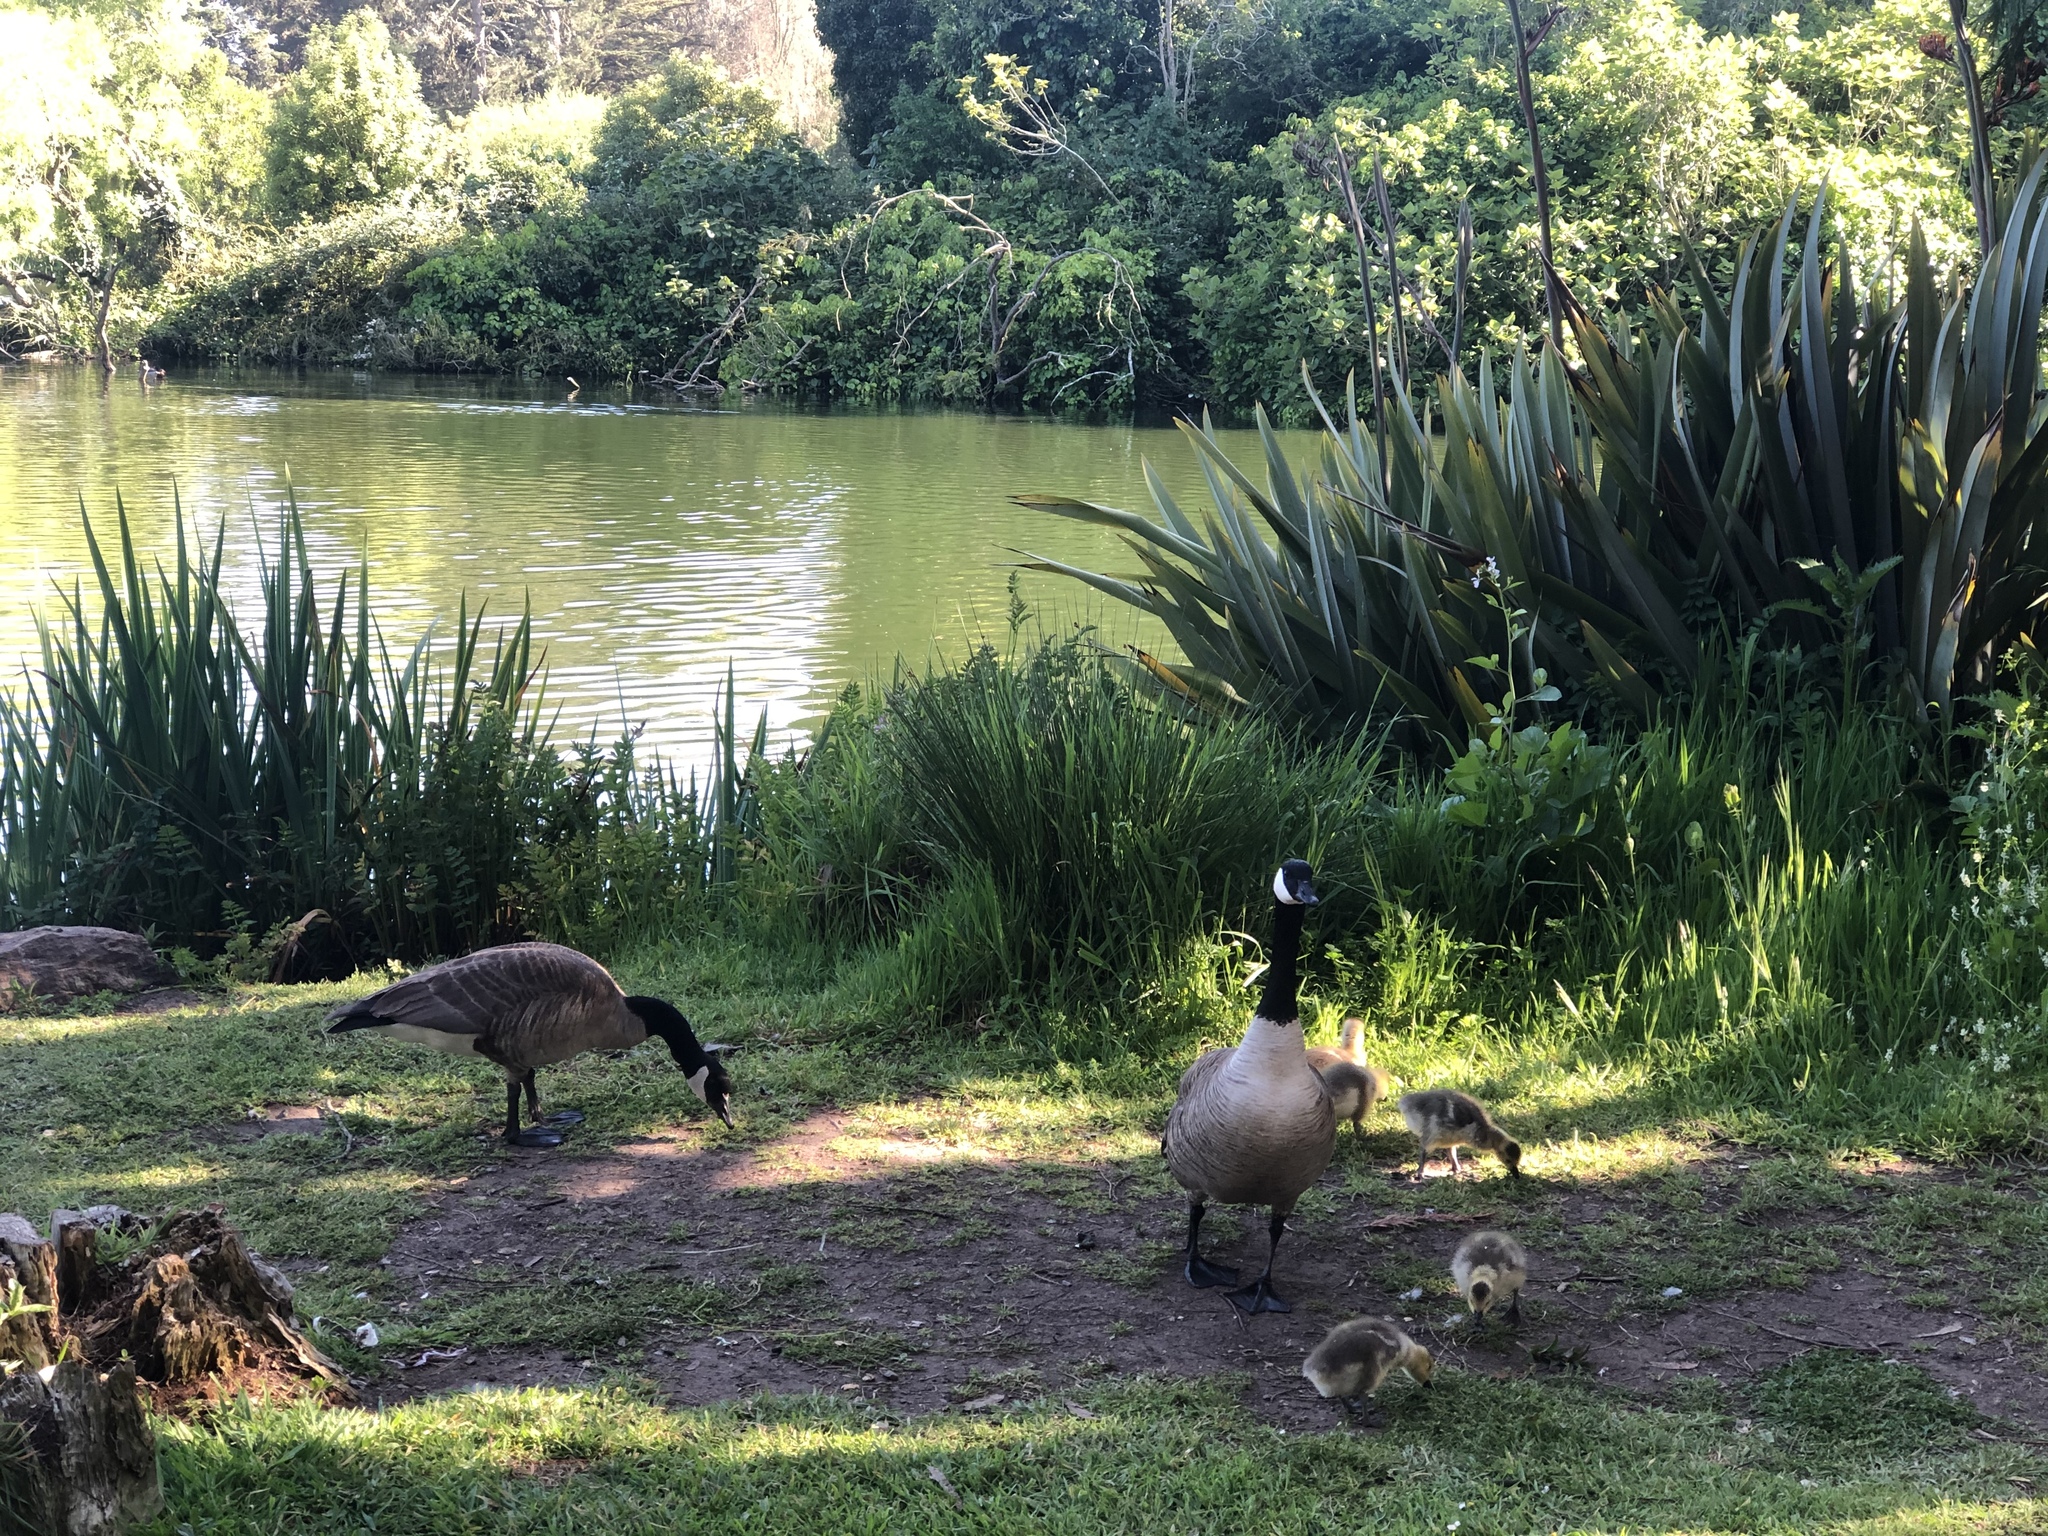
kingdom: Animalia
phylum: Chordata
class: Aves
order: Anseriformes
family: Anatidae
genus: Branta
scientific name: Branta canadensis
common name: Canada goose
